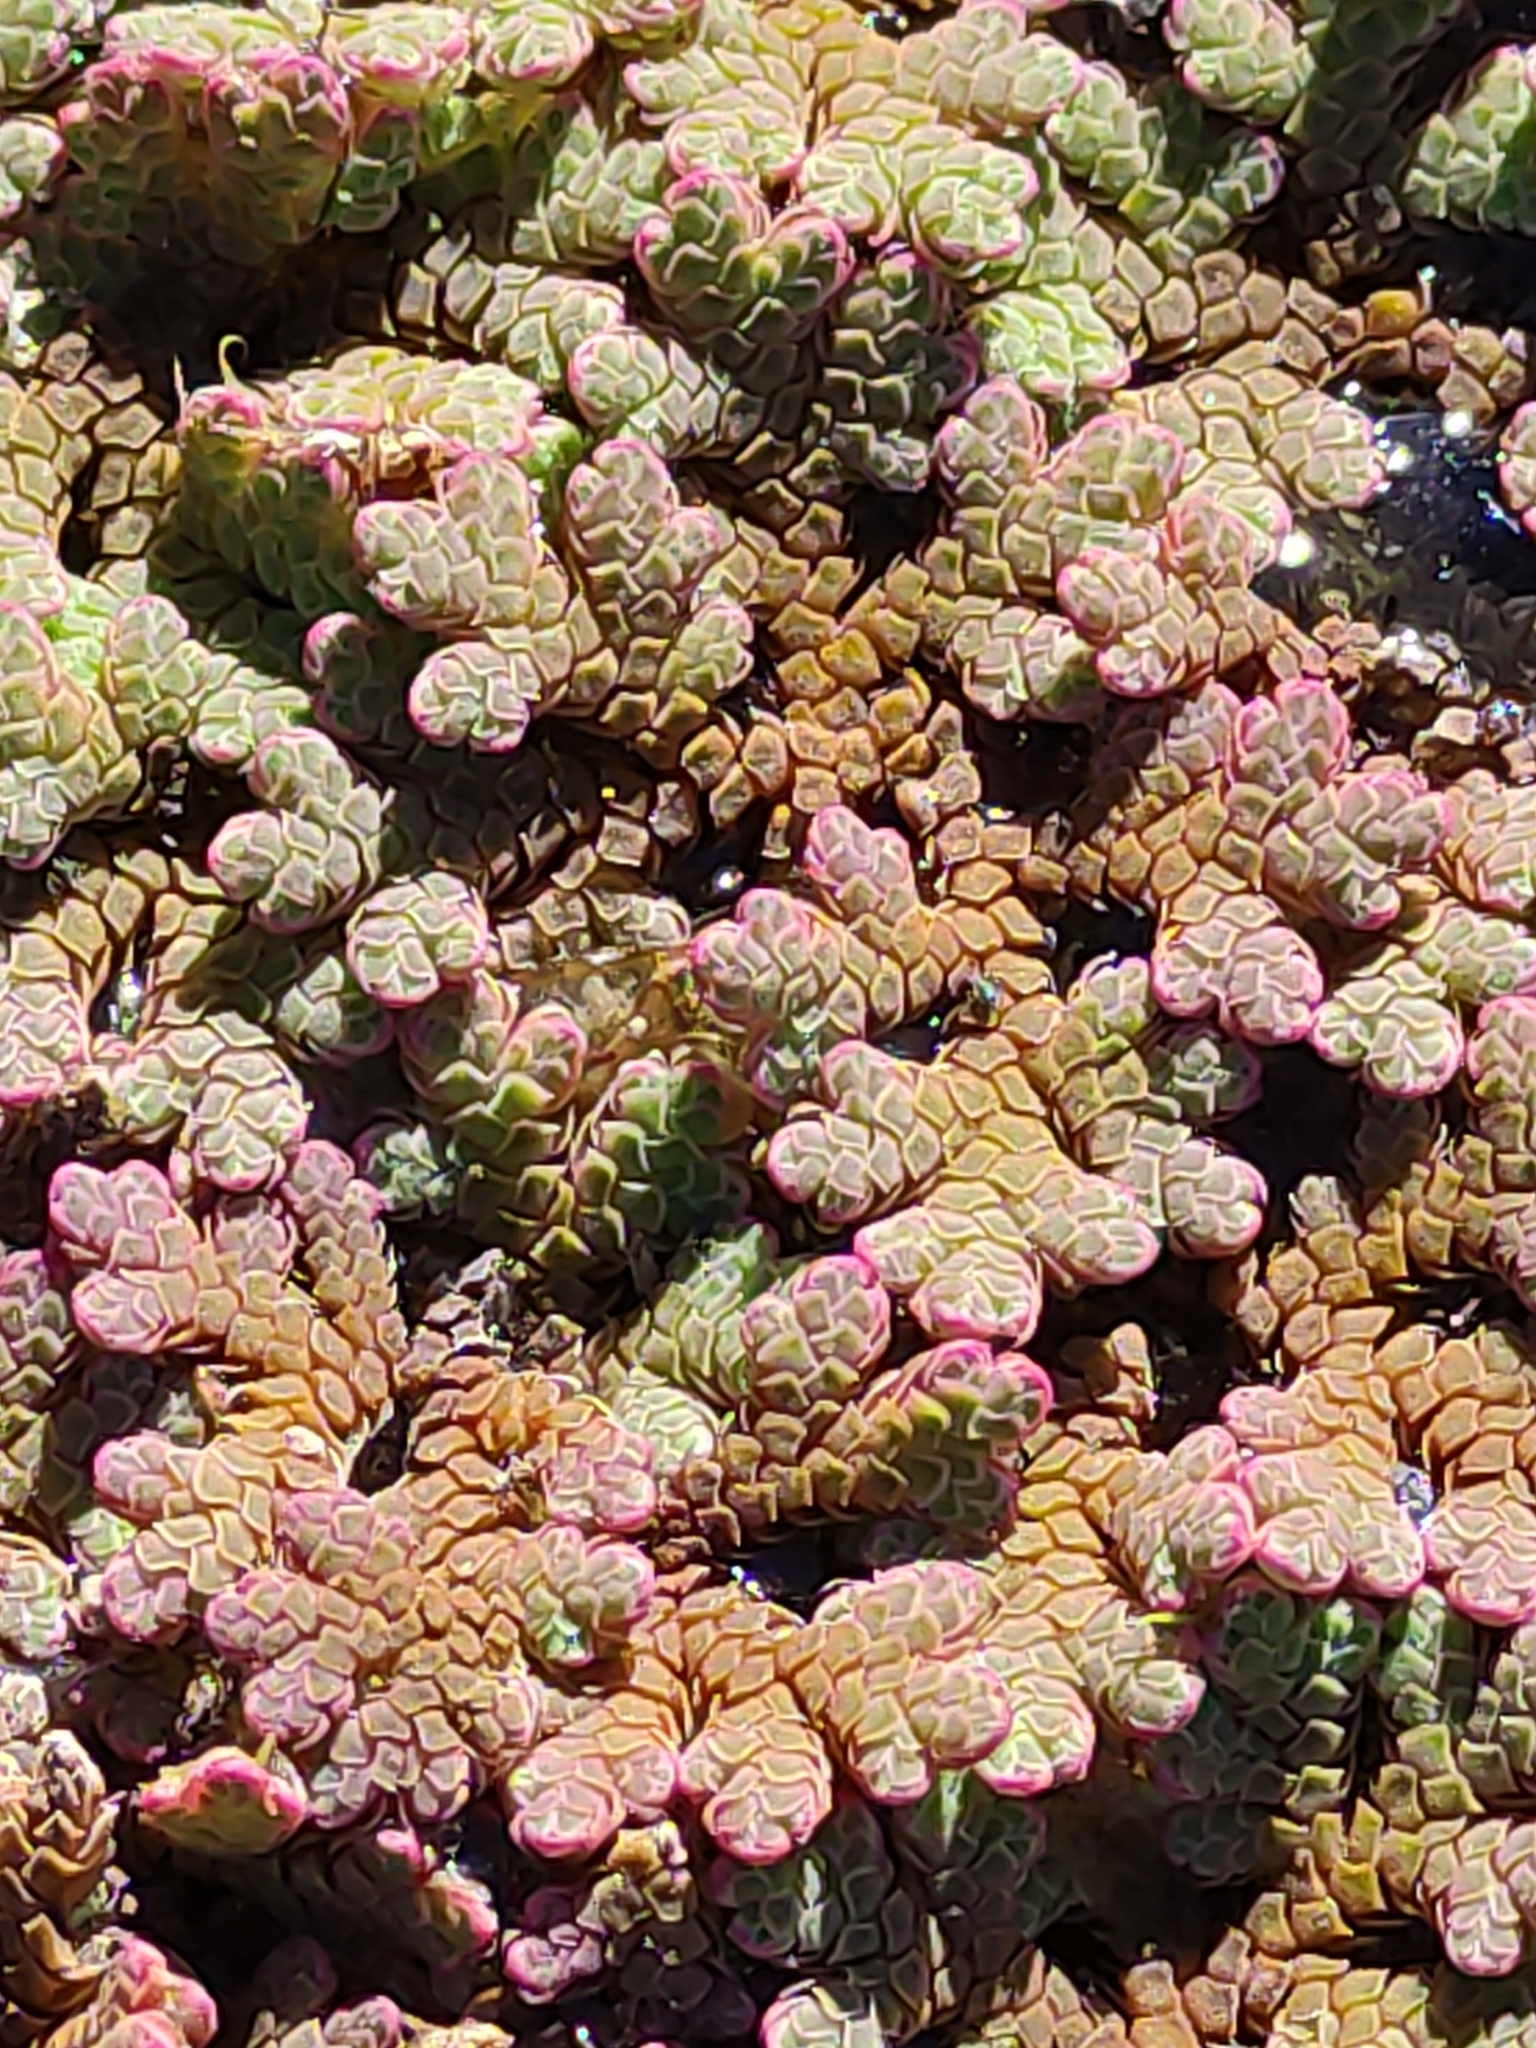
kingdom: Plantae
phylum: Tracheophyta
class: Polypodiopsida
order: Salviniales
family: Salviniaceae
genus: Azolla
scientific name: Azolla rubra
